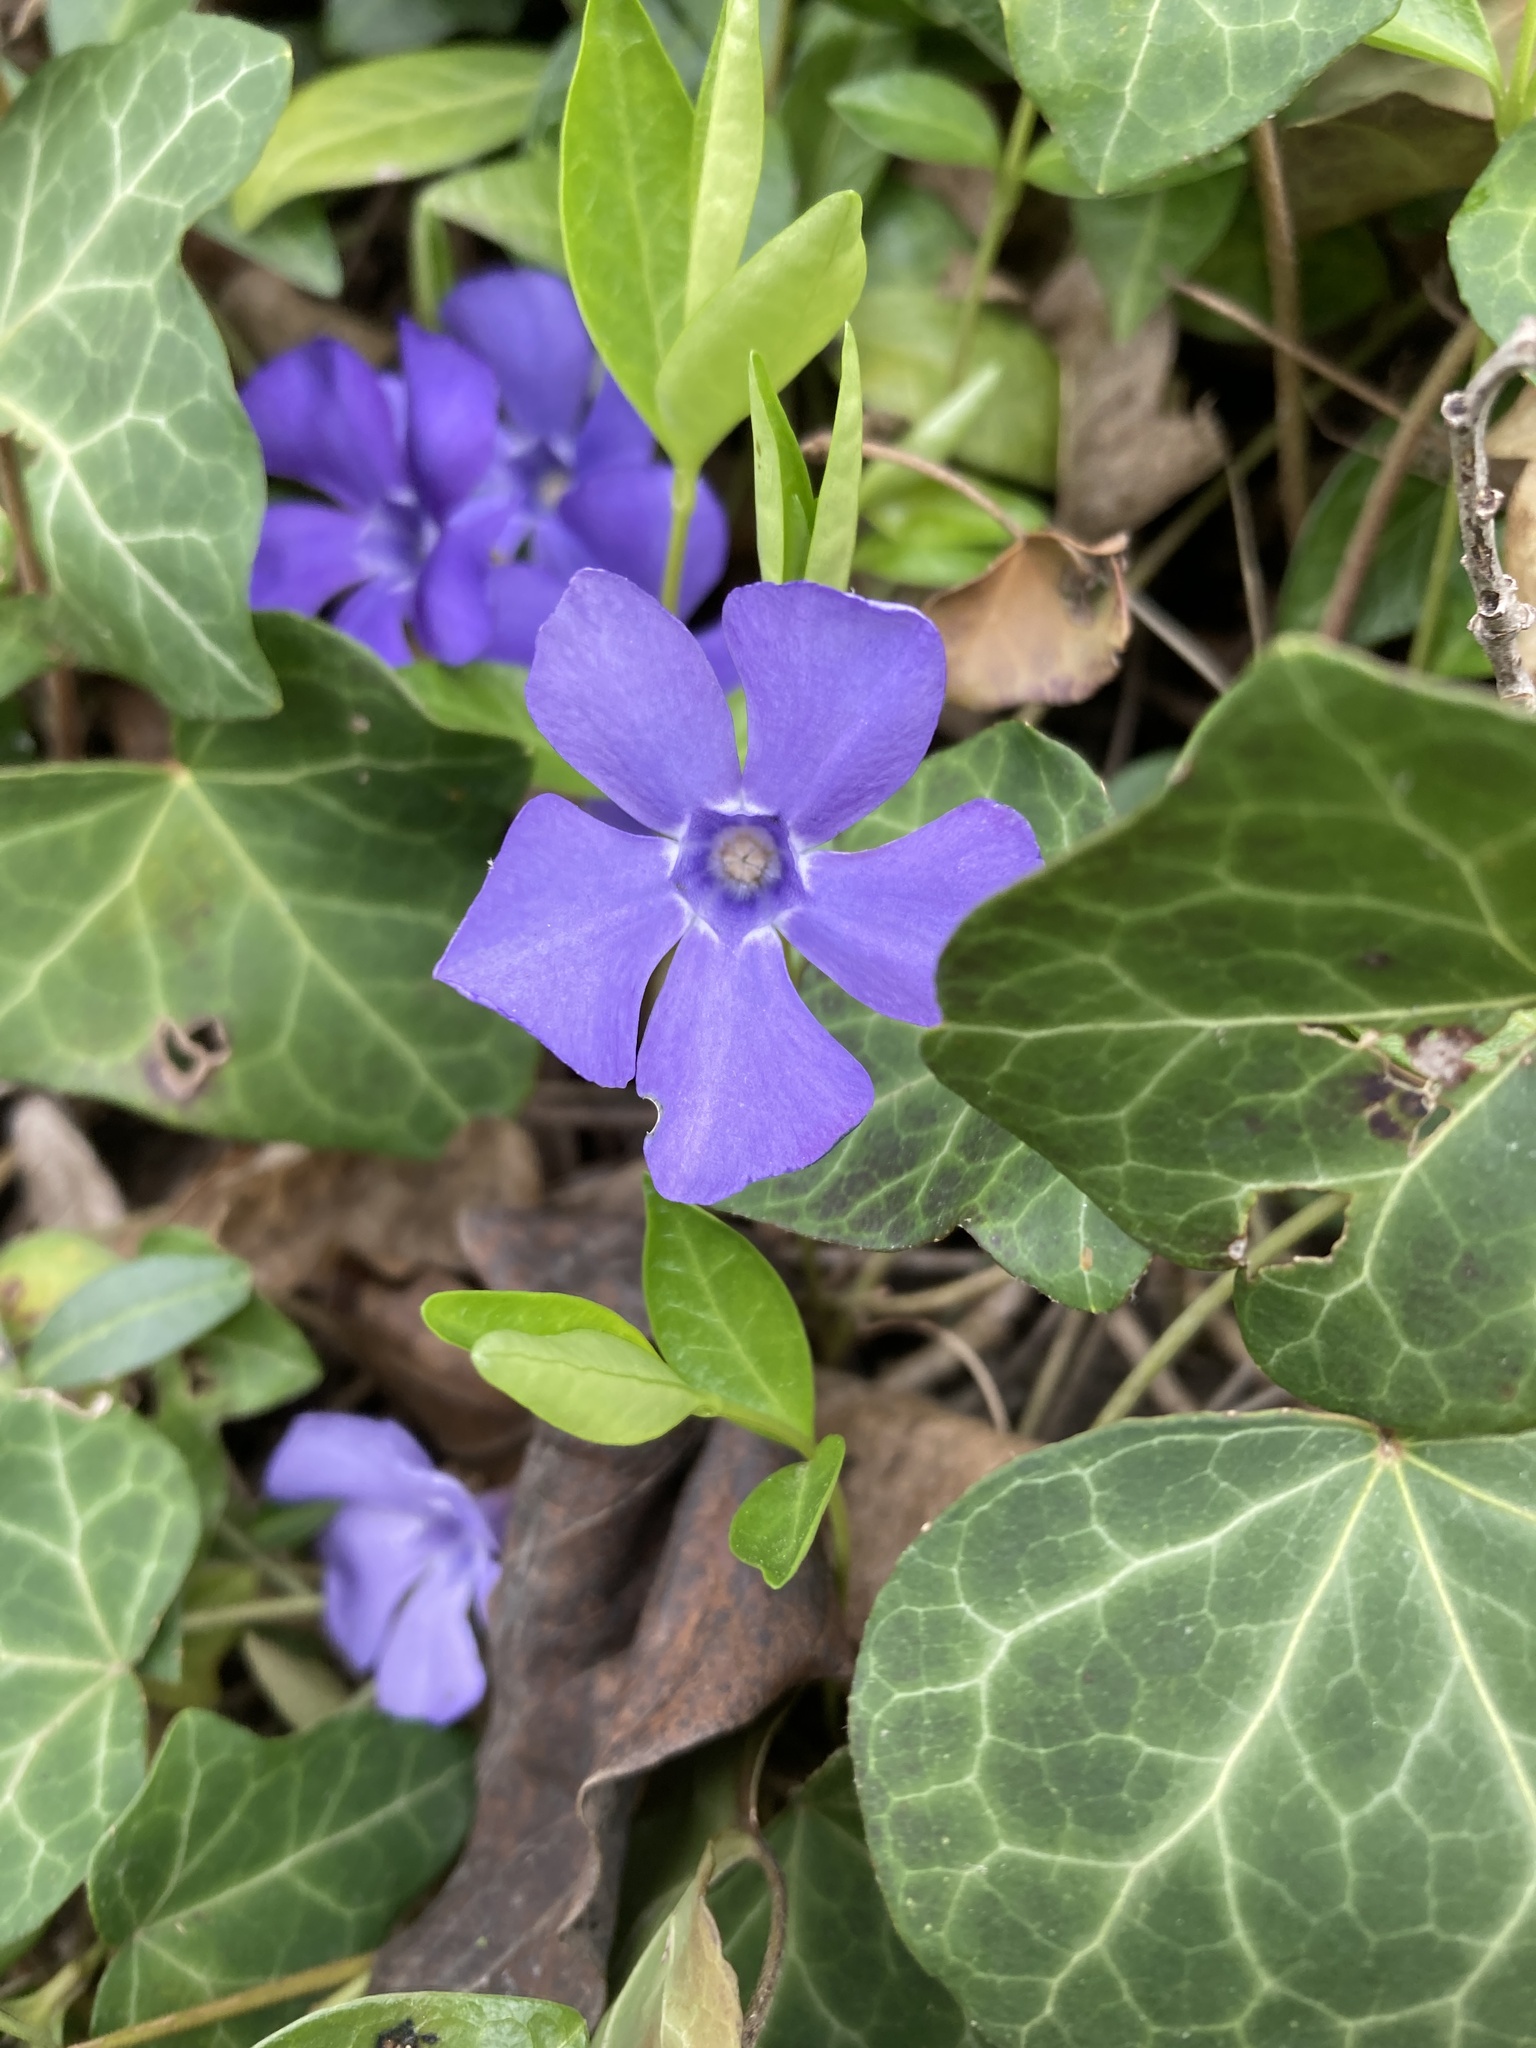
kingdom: Plantae
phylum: Tracheophyta
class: Magnoliopsida
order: Gentianales
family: Apocynaceae
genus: Vinca
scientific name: Vinca minor
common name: Lesser periwinkle
